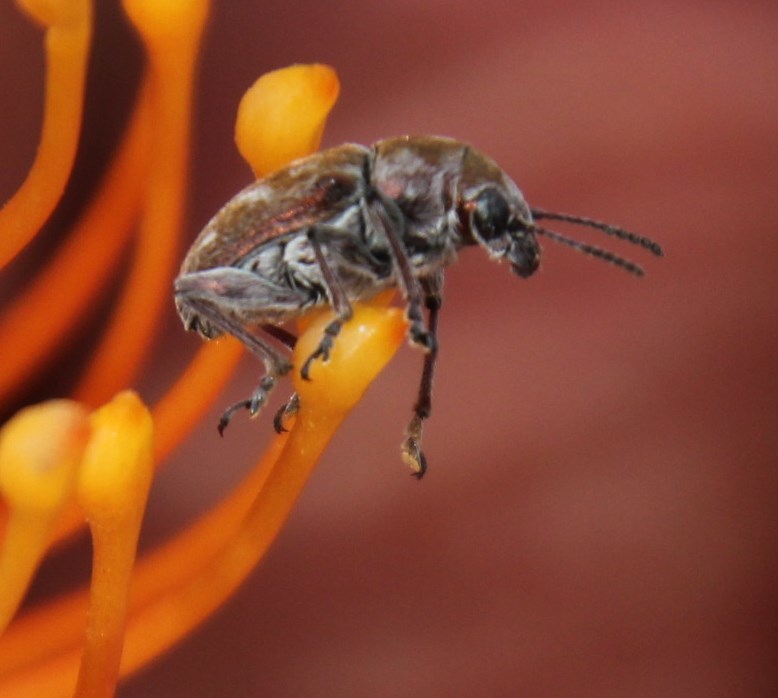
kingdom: Plantae
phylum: Tracheophyta
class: Magnoliopsida
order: Proteales
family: Proteaceae
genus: Leucospermum
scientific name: Leucospermum vestitum
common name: Silky-hair pincushion
